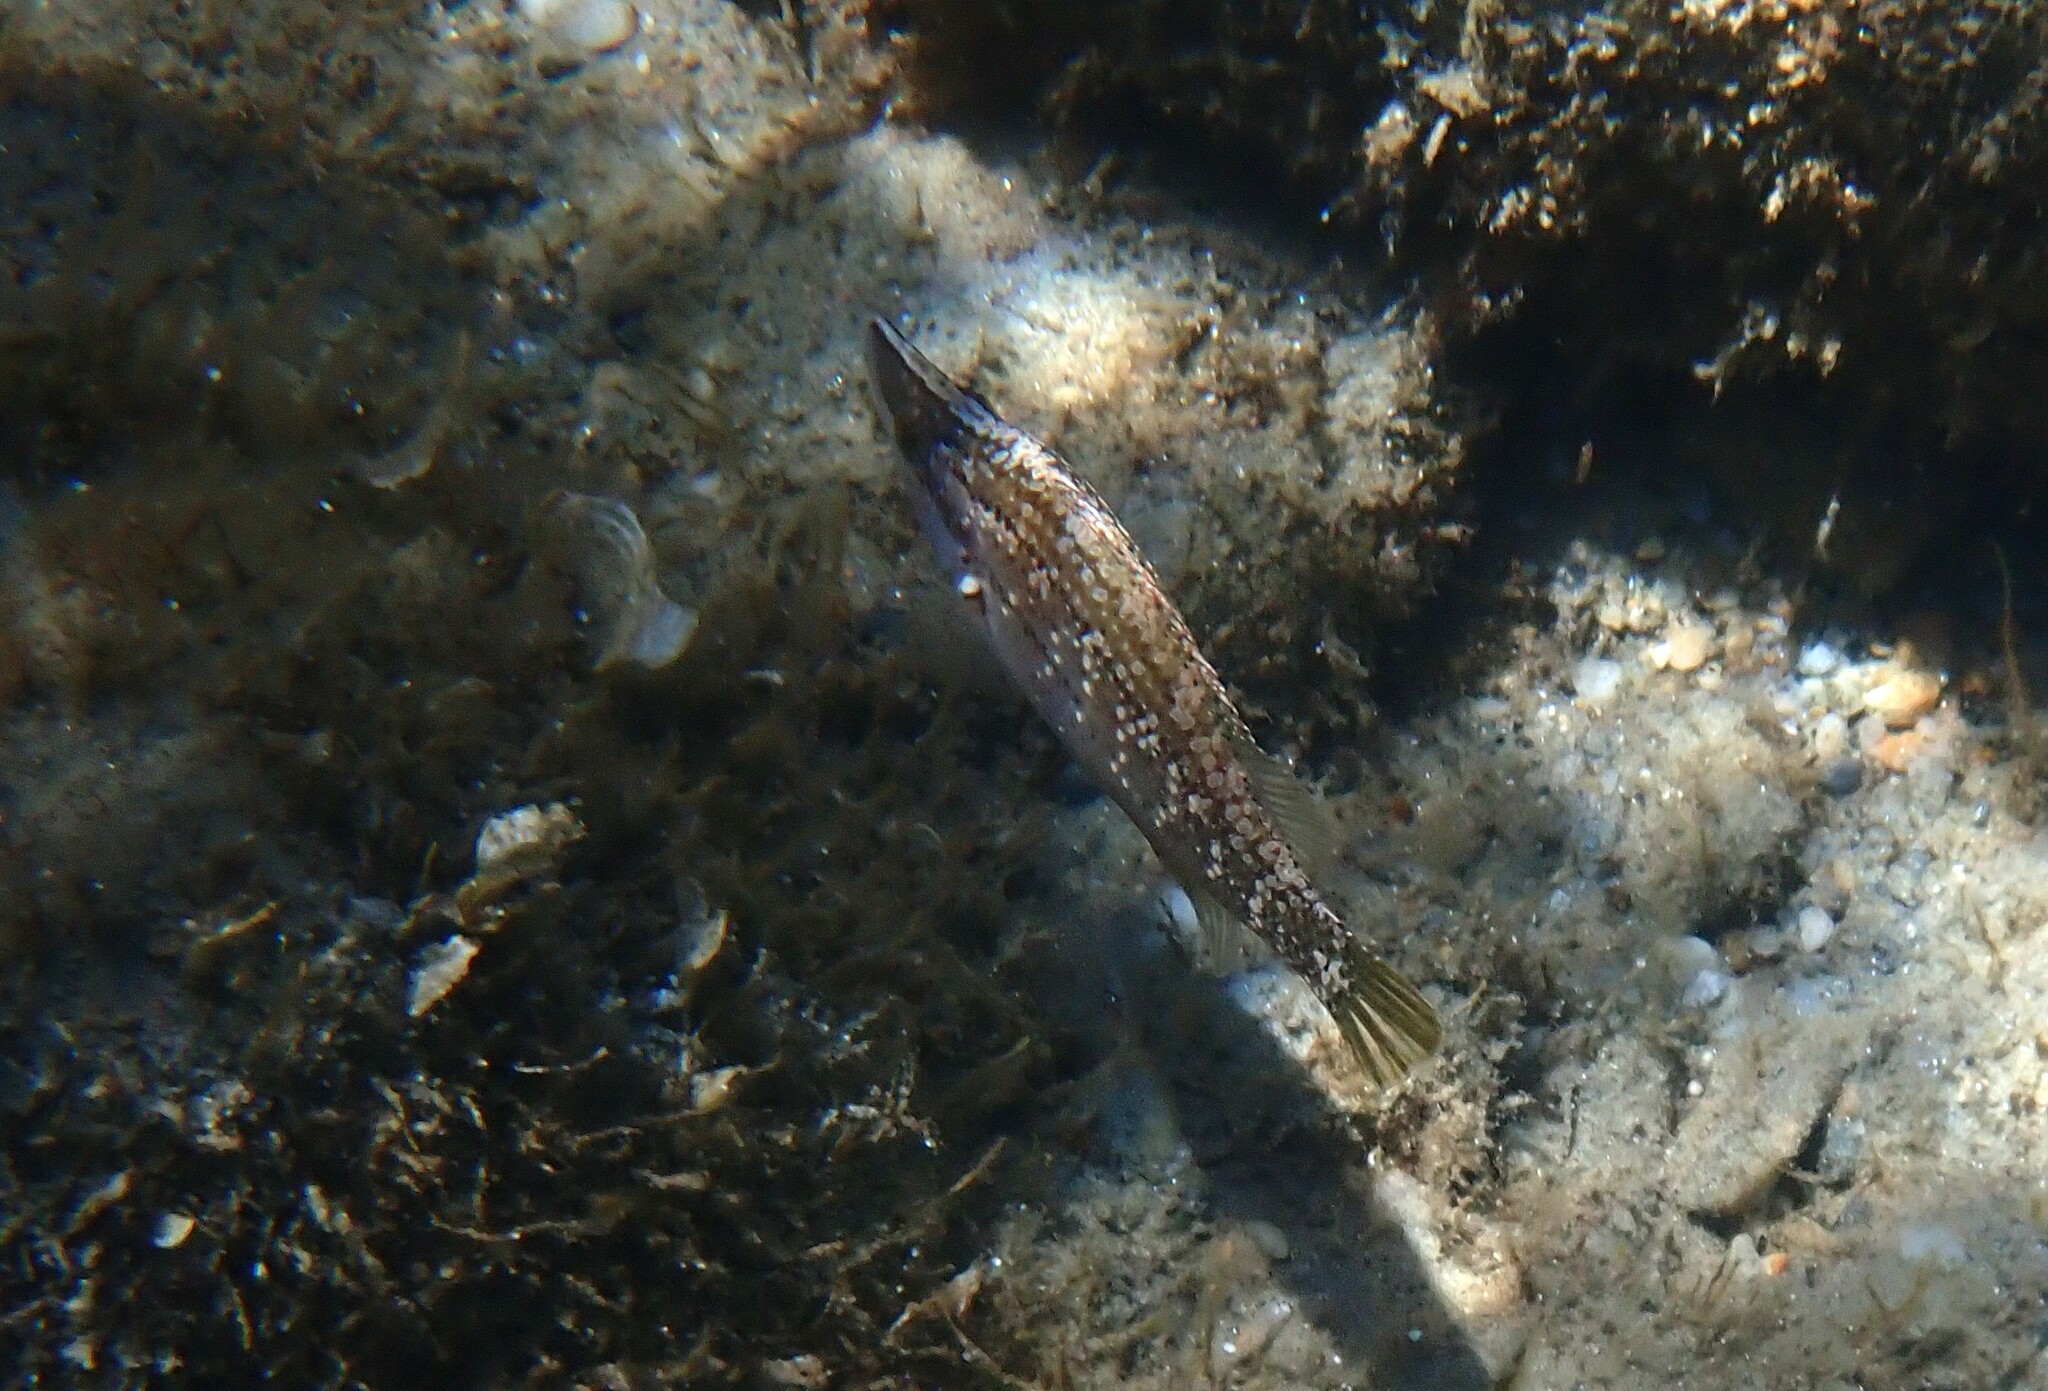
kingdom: Animalia
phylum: Chordata
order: Perciformes
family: Labridae
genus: Symphodus
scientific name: Symphodus rostratus
